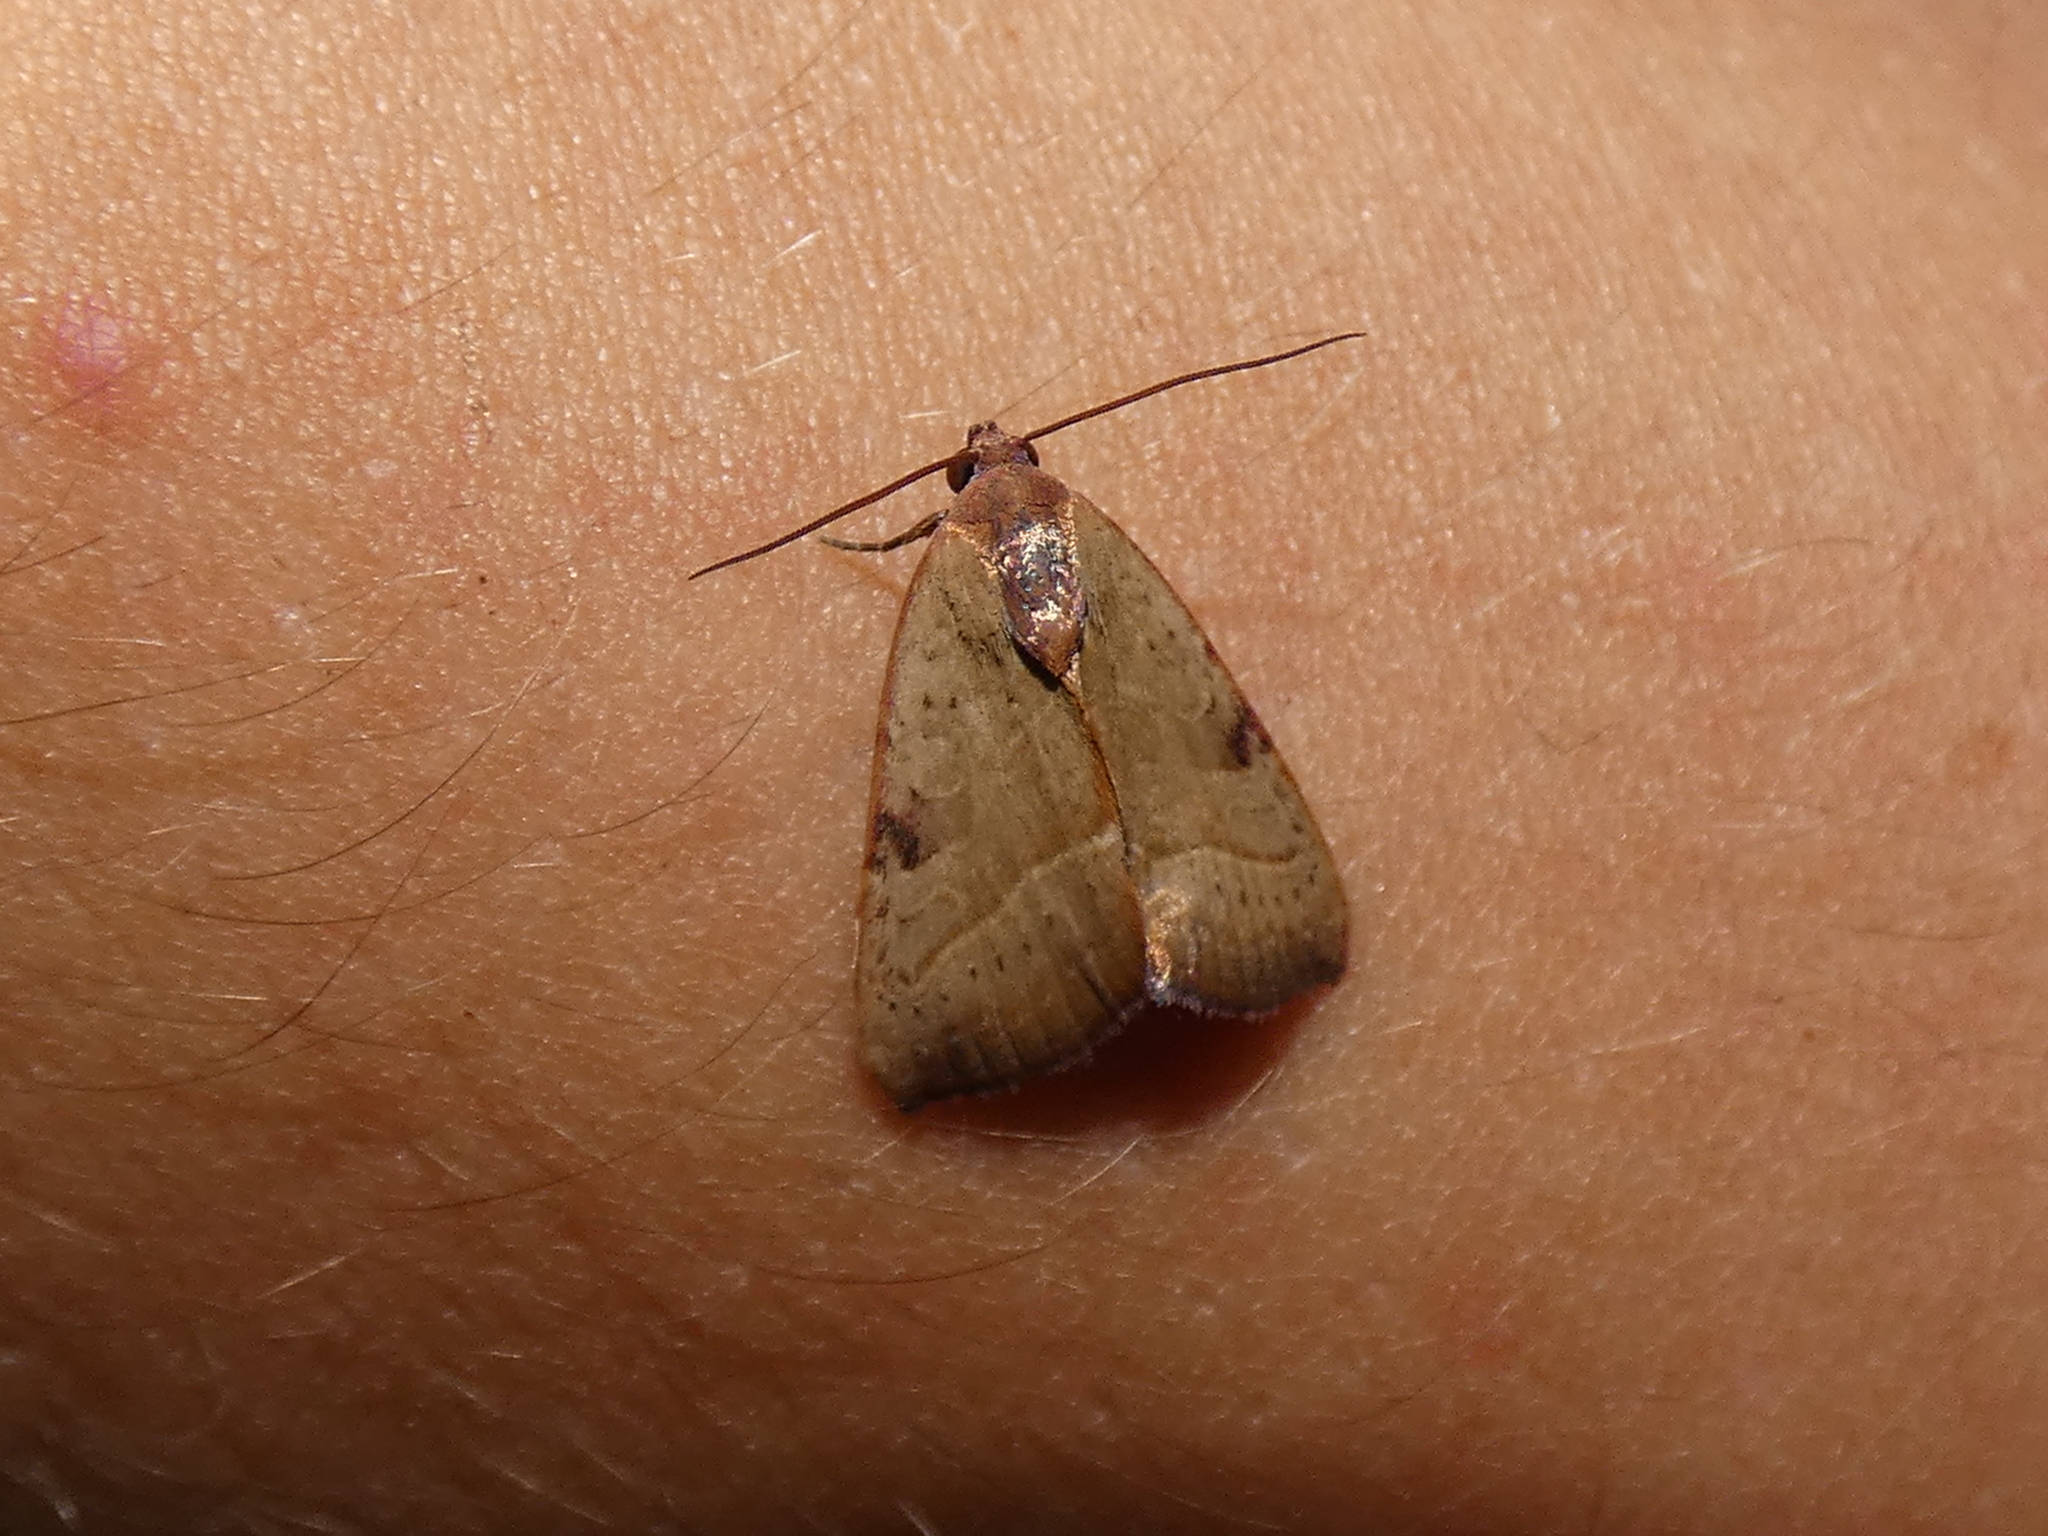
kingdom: Animalia
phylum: Arthropoda
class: Insecta
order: Lepidoptera
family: Noctuidae
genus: Galgula
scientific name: Galgula partita
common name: Wedgeling
